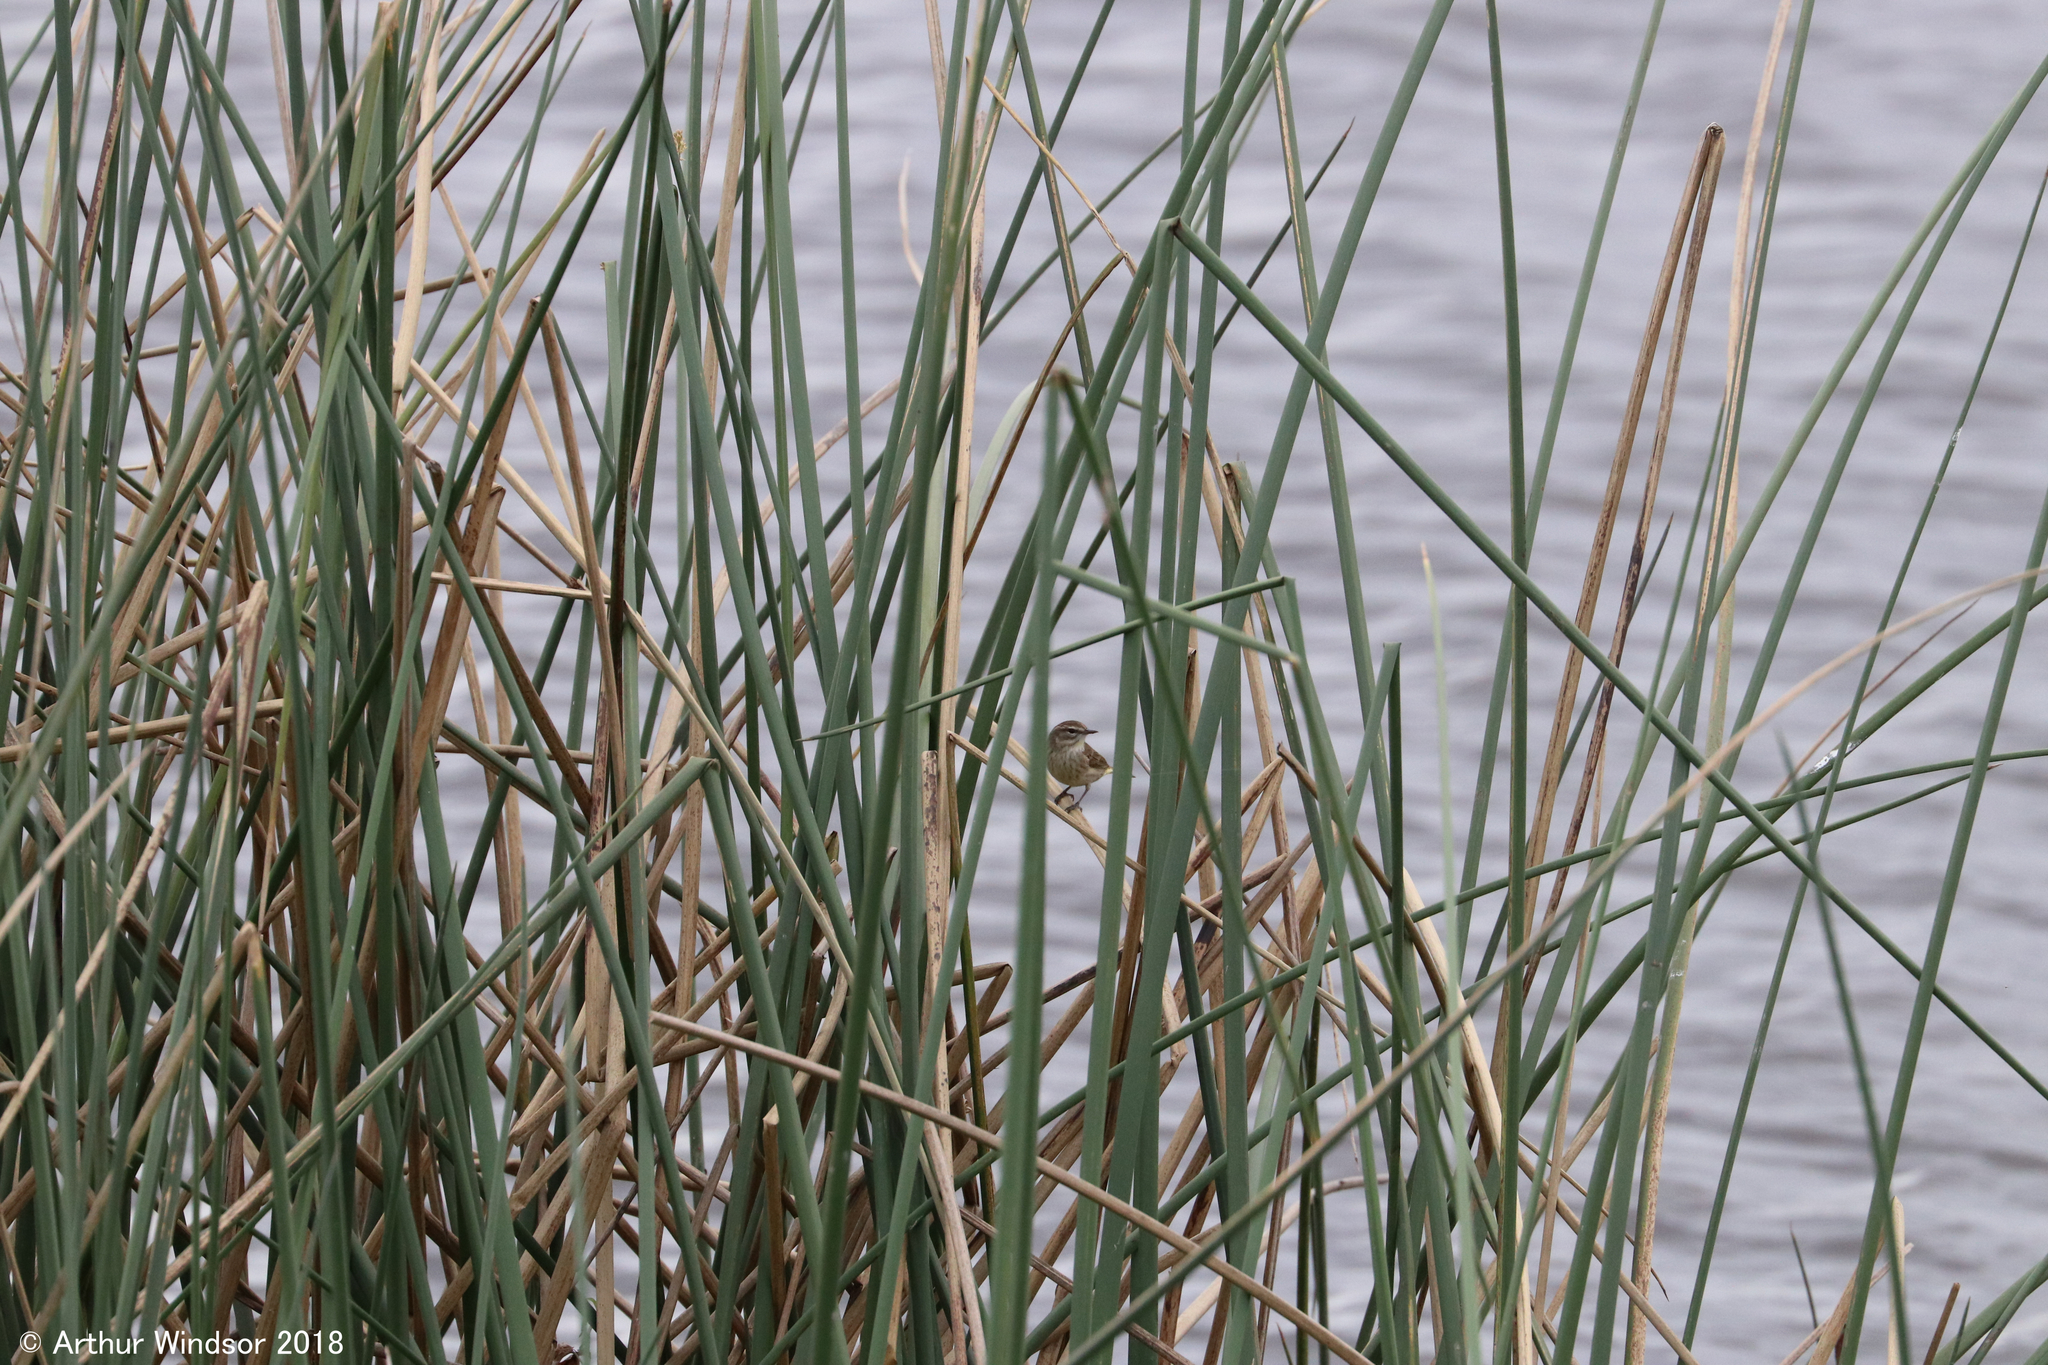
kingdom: Animalia
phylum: Chordata
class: Aves
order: Passeriformes
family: Parulidae
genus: Setophaga
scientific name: Setophaga palmarum
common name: Palm warbler
